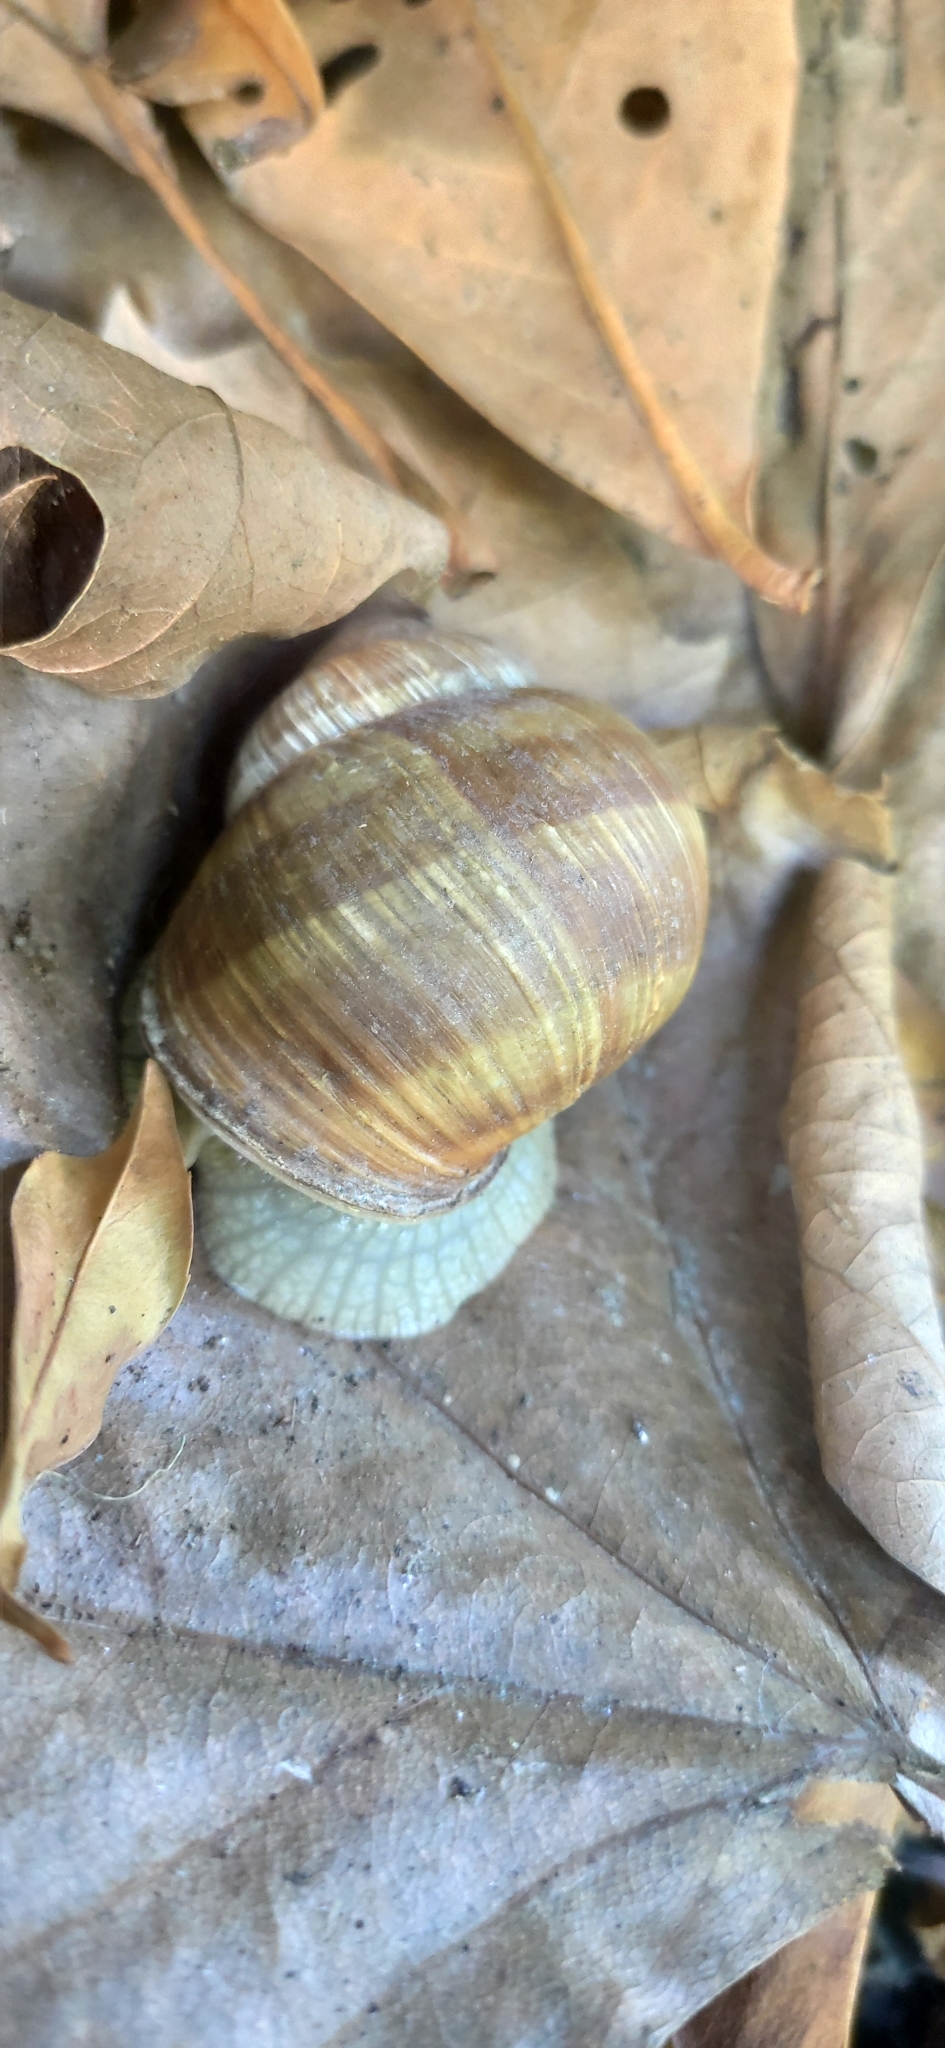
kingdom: Animalia
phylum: Mollusca
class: Gastropoda
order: Stylommatophora
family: Helicidae
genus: Helix
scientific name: Helix pomatia
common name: Roman snail
